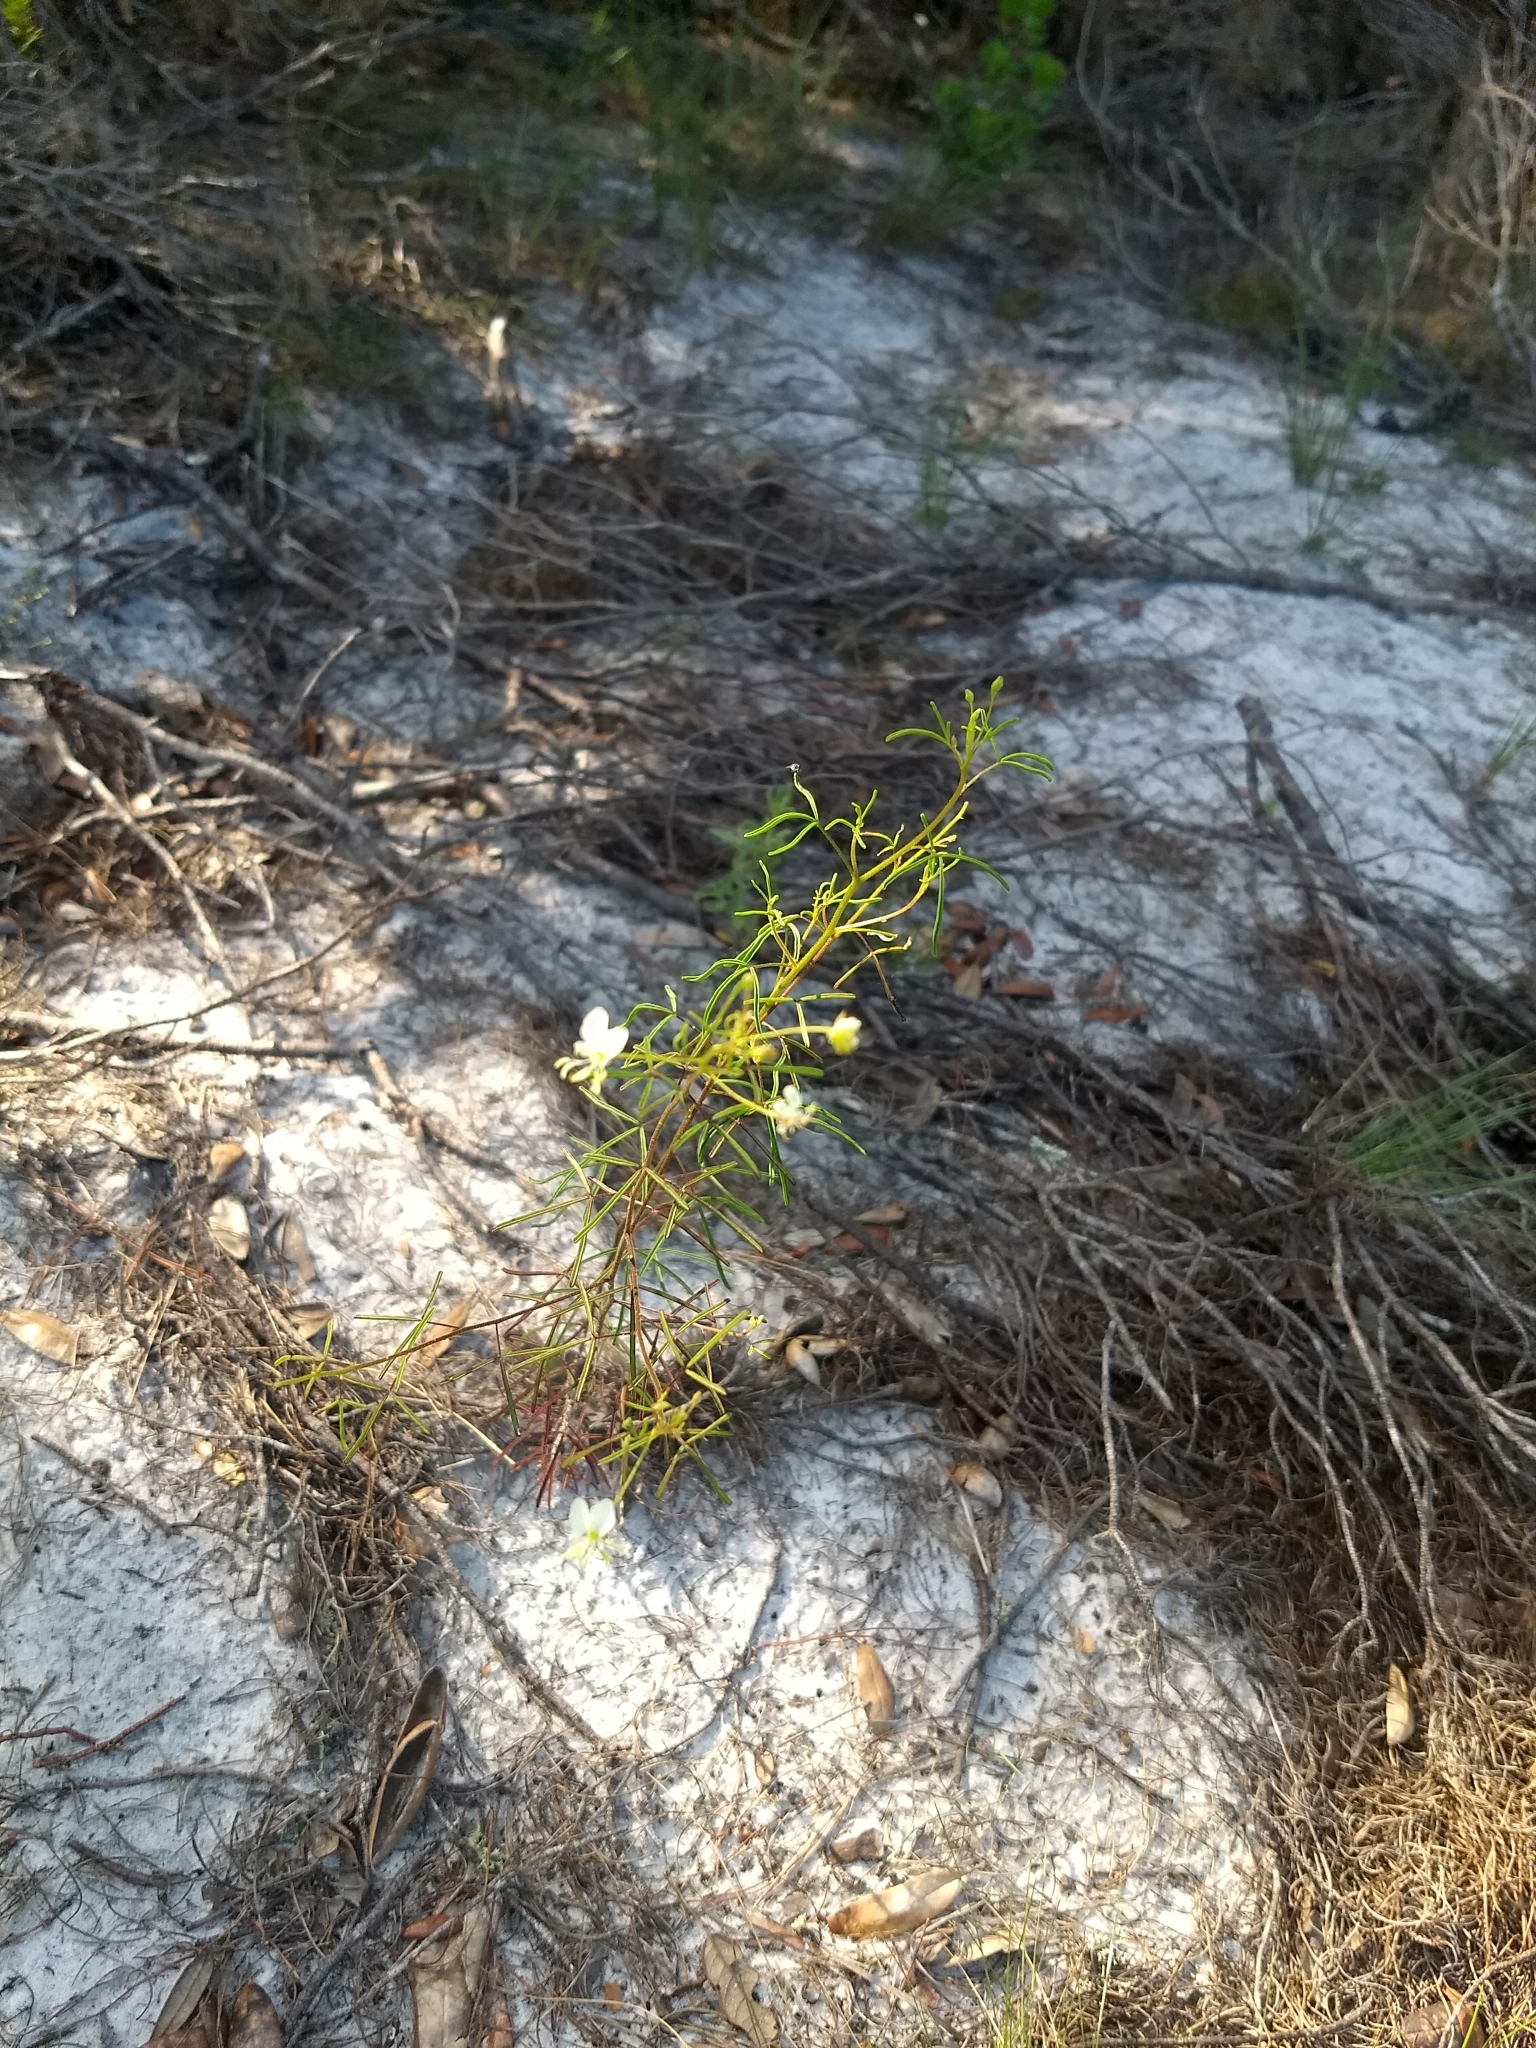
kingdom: Plantae
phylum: Tracheophyta
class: Magnoliopsida
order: Brassicales
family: Cleomaceae
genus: Polanisia
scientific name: Polanisia tenuifolia
